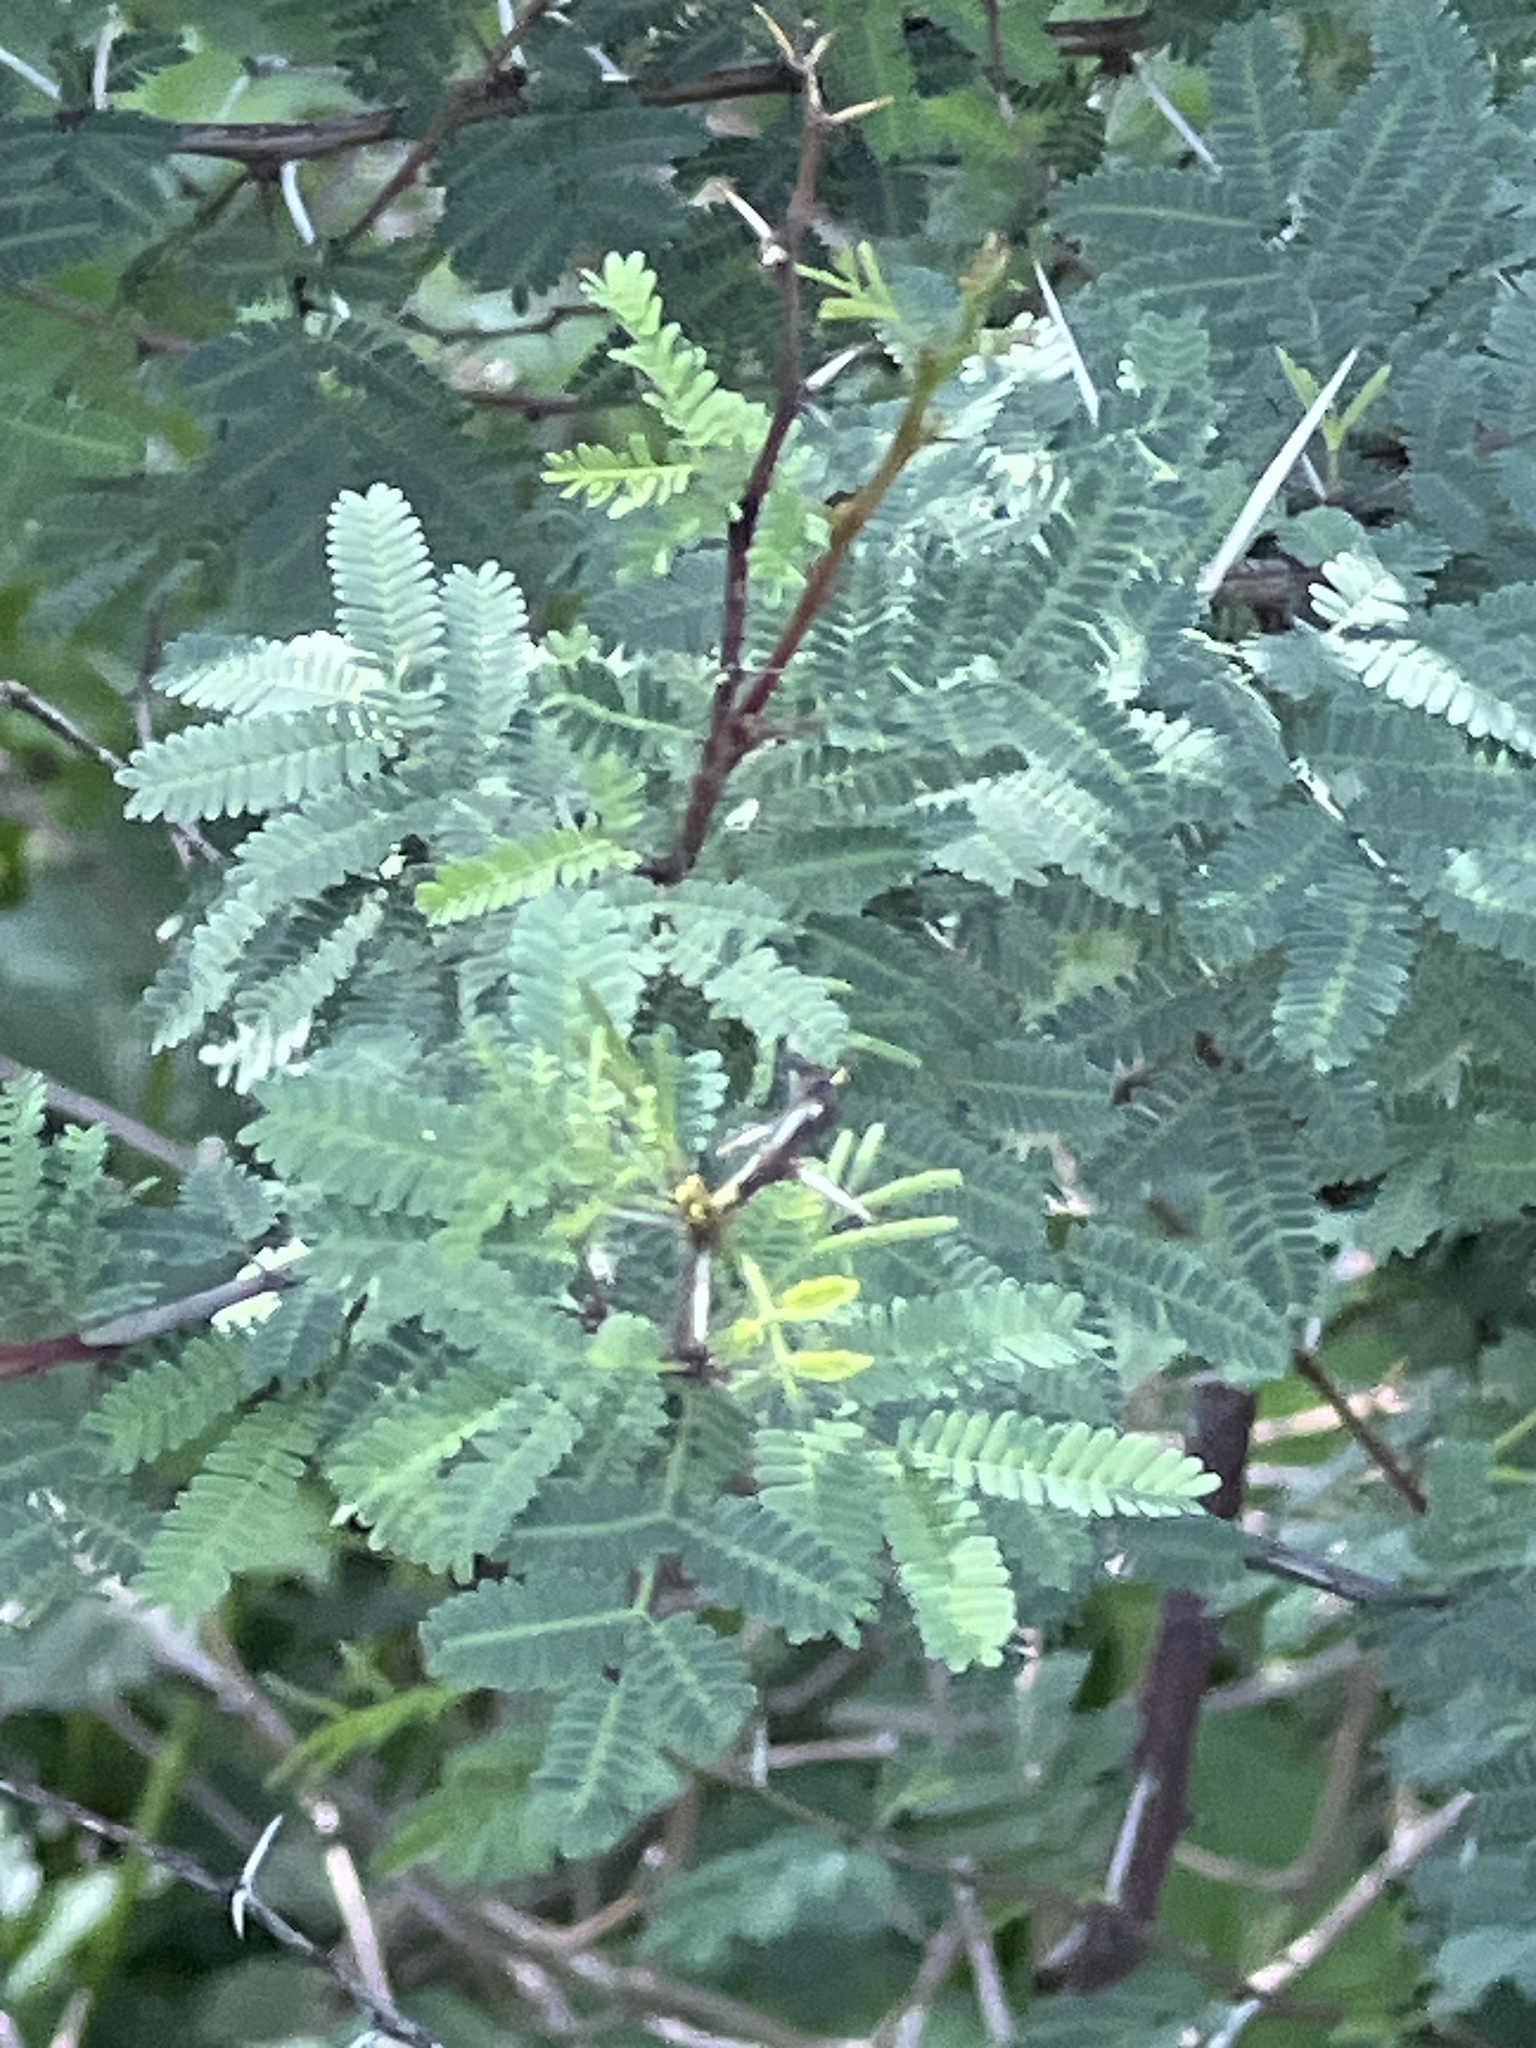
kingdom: Plantae
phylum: Tracheophyta
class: Magnoliopsida
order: Fabales
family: Fabaceae
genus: Vachellia
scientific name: Vachellia farnesiana
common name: Sweet acacia
